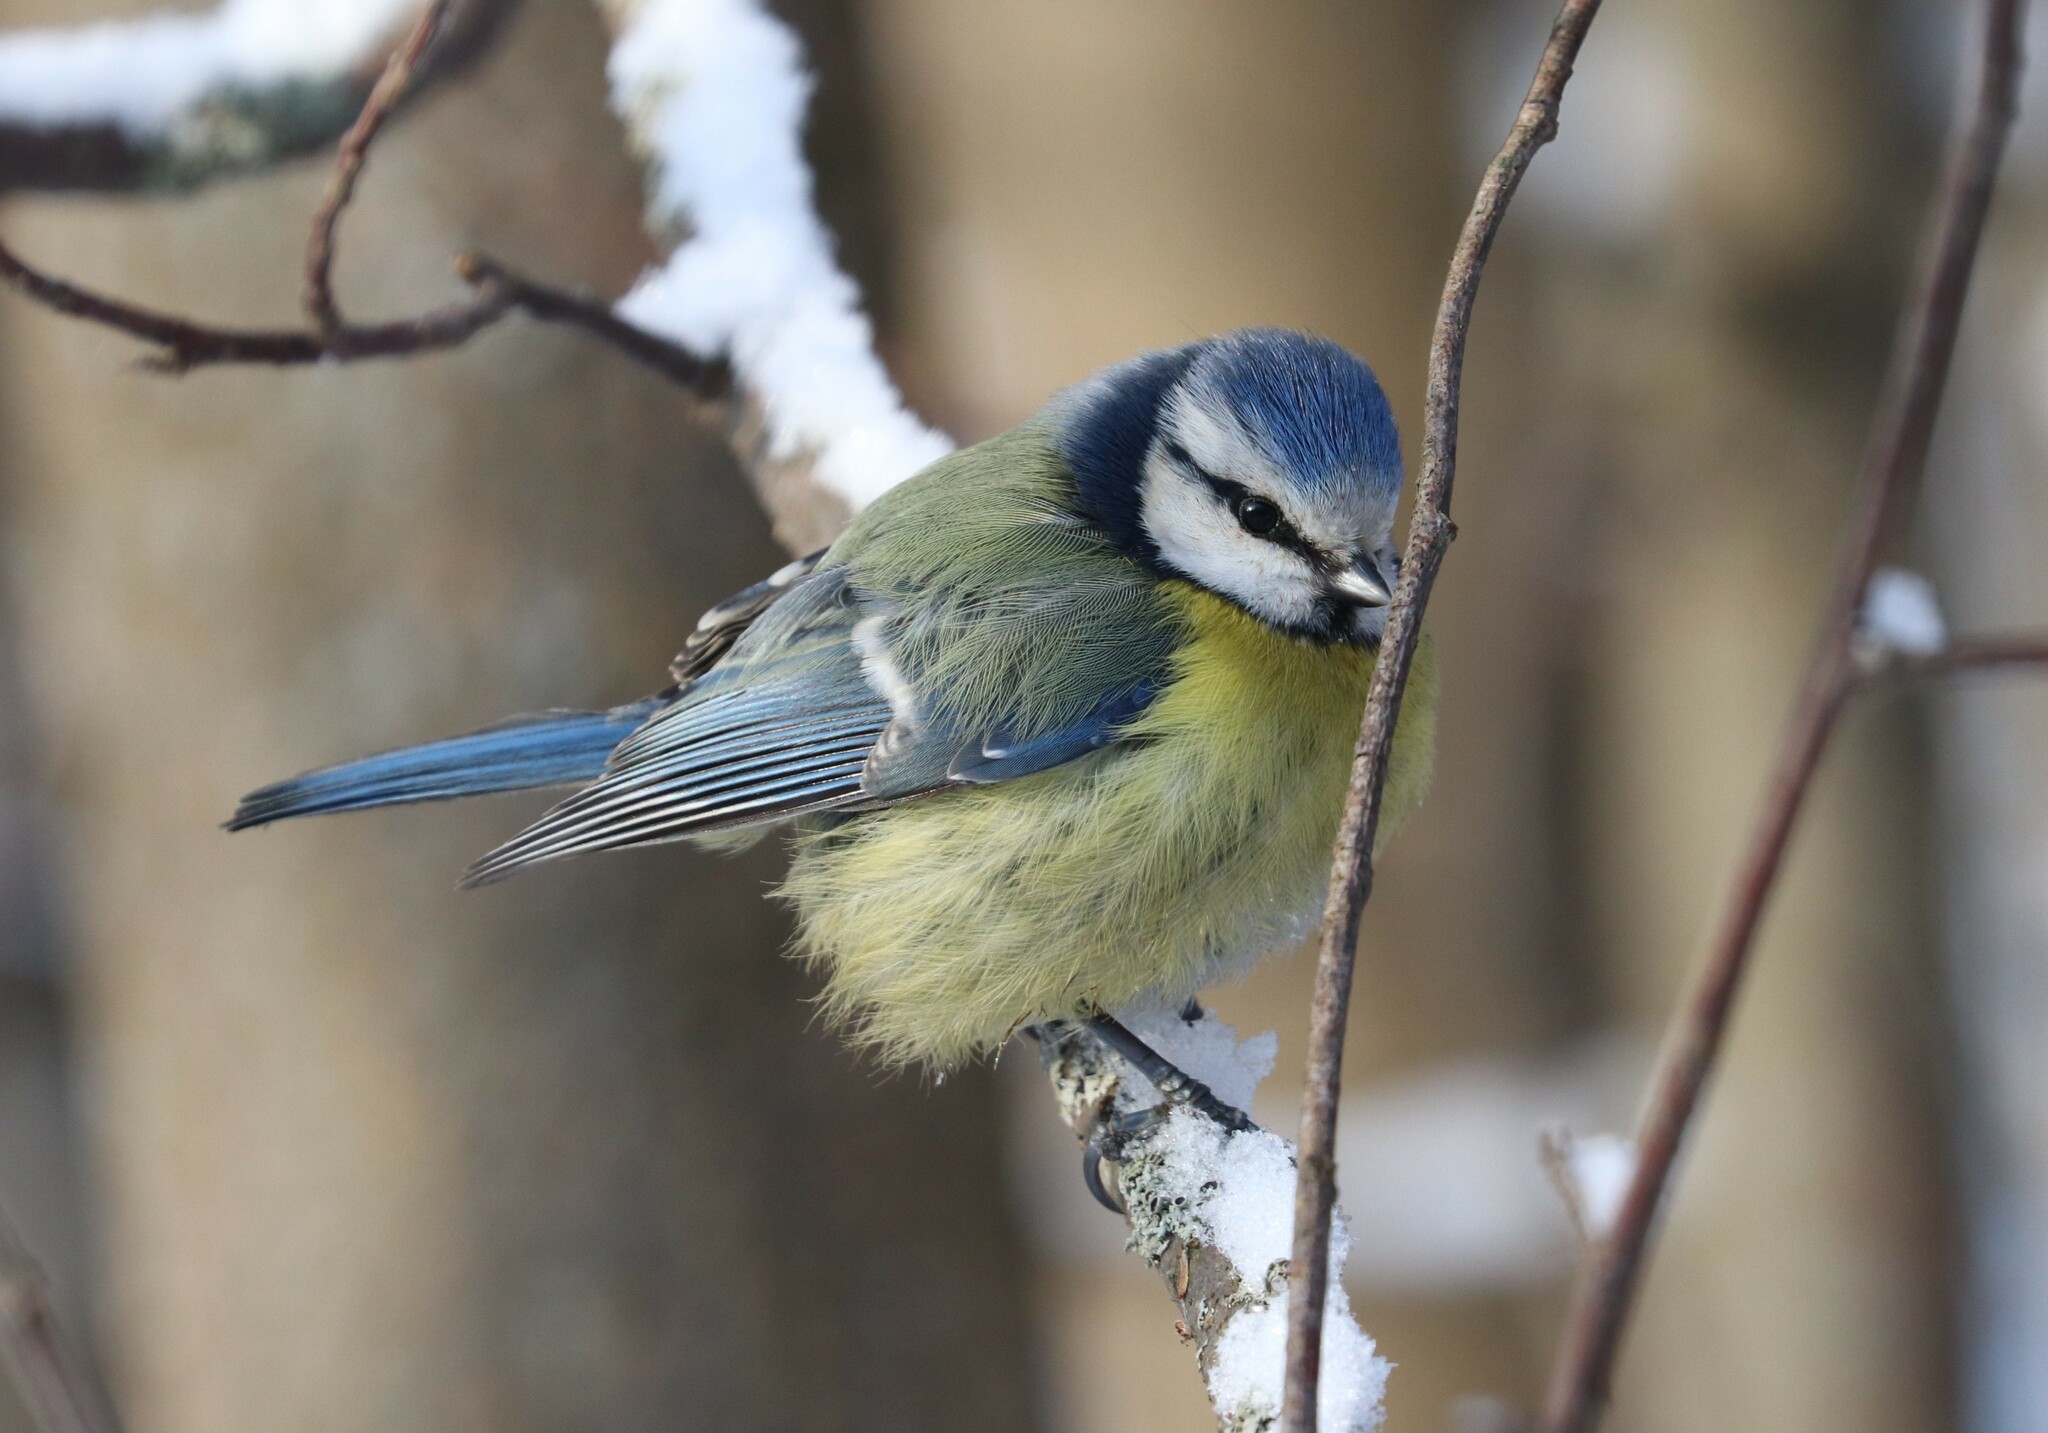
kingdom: Animalia
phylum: Chordata
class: Aves
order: Passeriformes
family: Paridae
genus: Cyanistes
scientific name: Cyanistes caeruleus
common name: Eurasian blue tit
